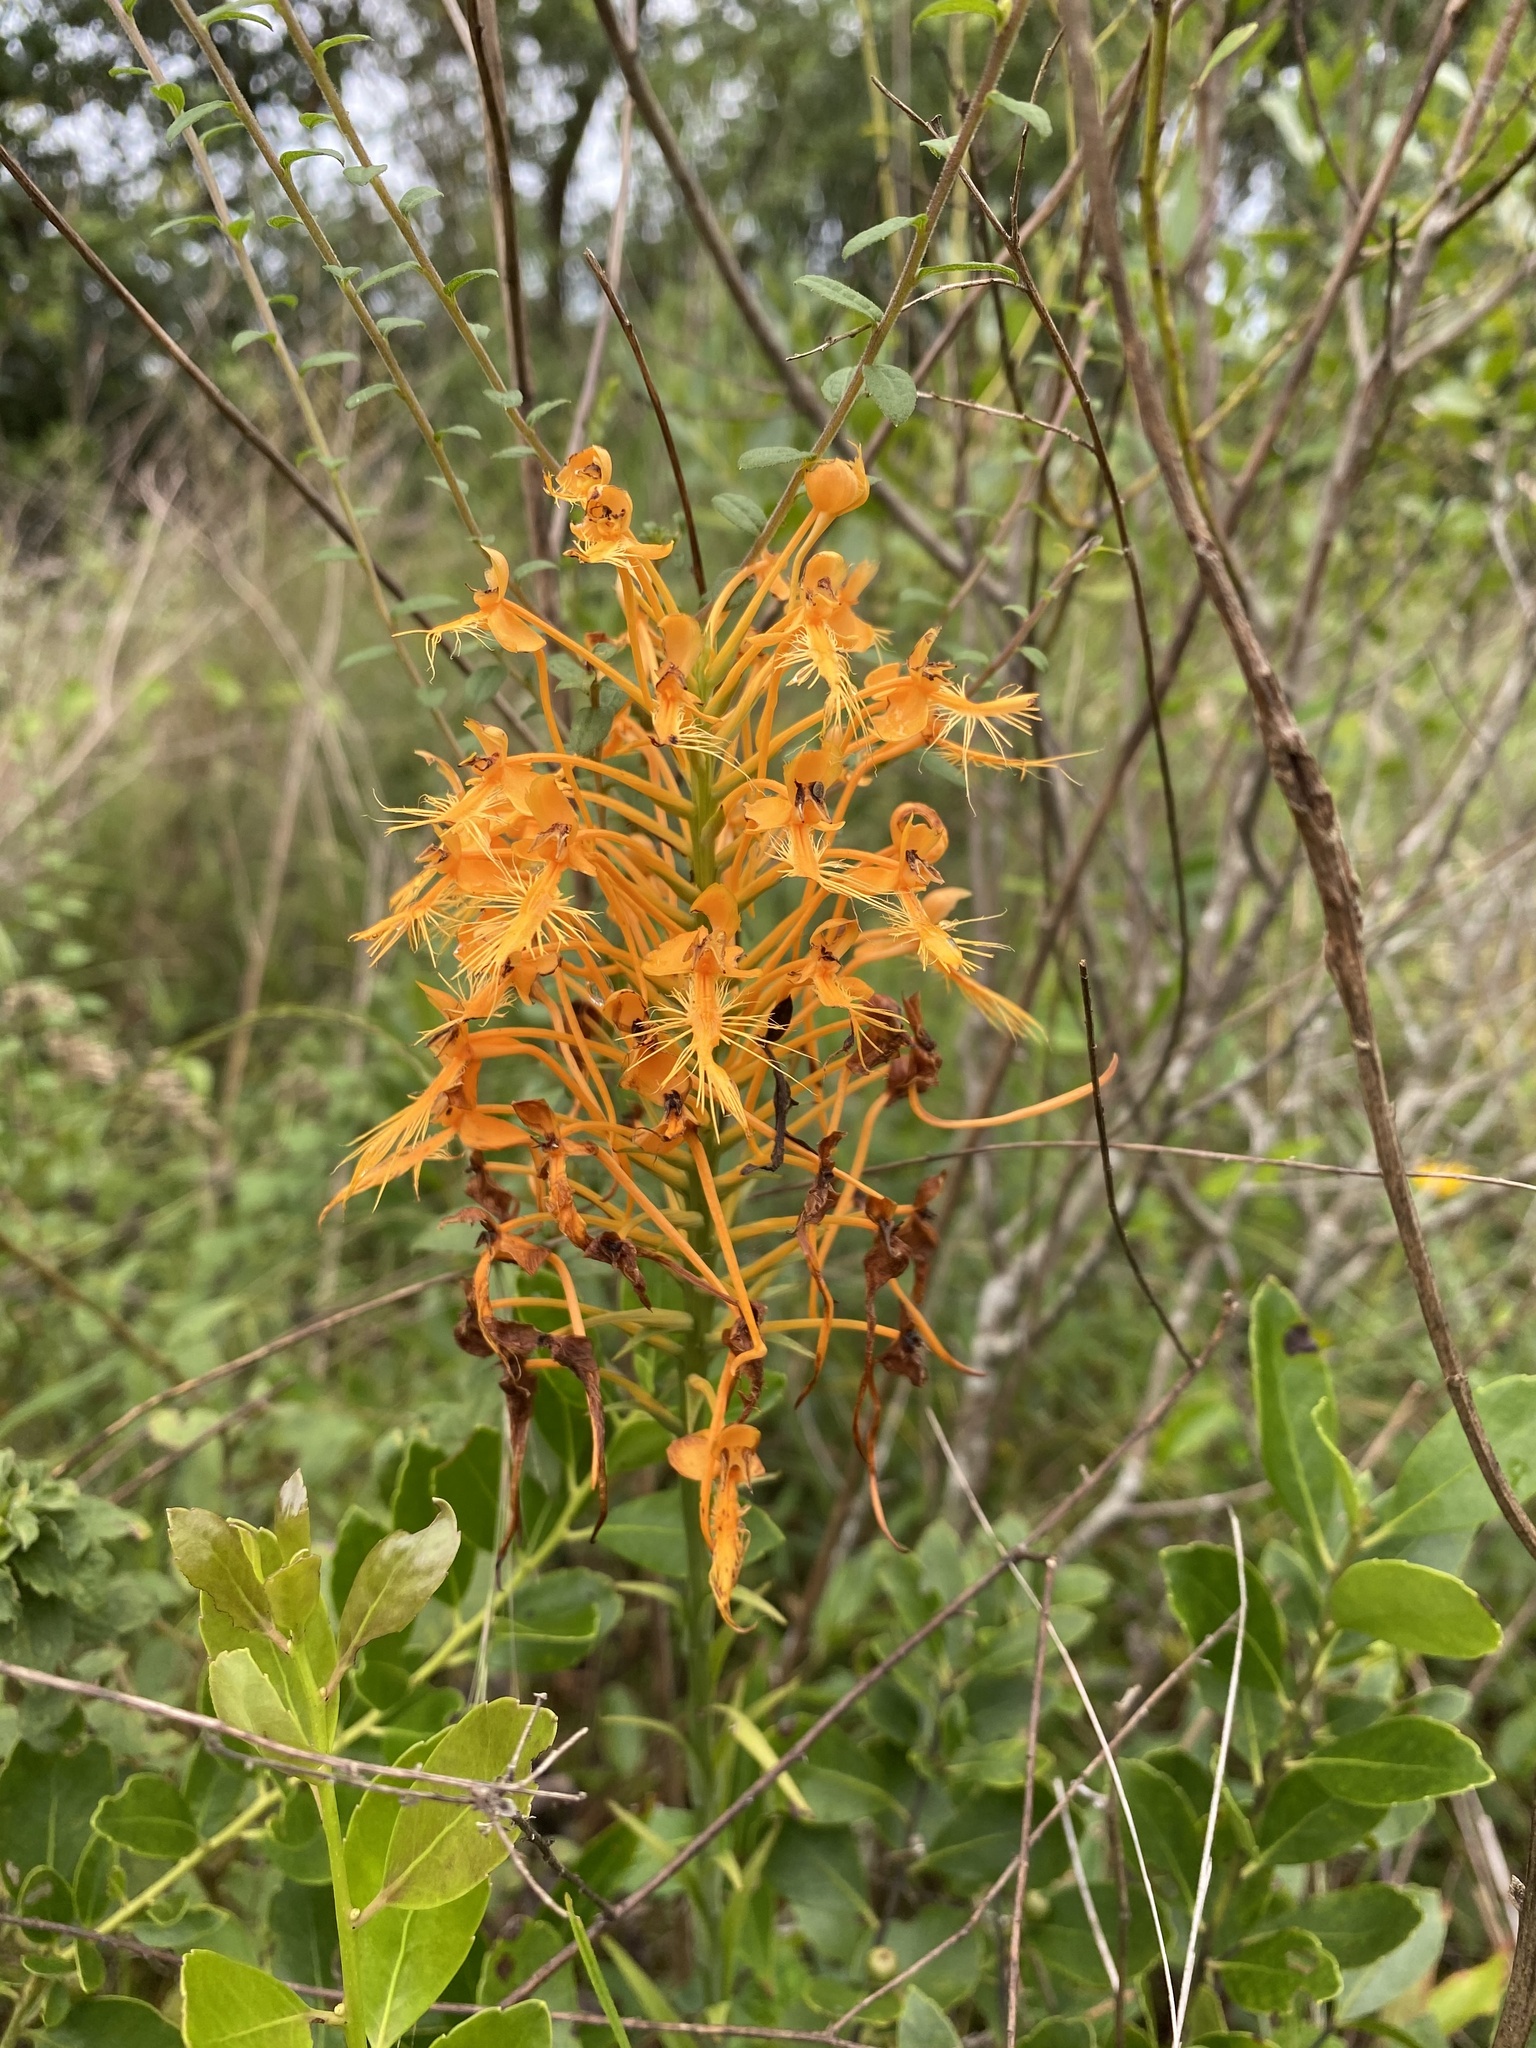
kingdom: Plantae
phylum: Tracheophyta
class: Liliopsida
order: Asparagales
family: Orchidaceae
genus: Platanthera
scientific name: Platanthera ciliaris
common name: Yellow fringed orchid
